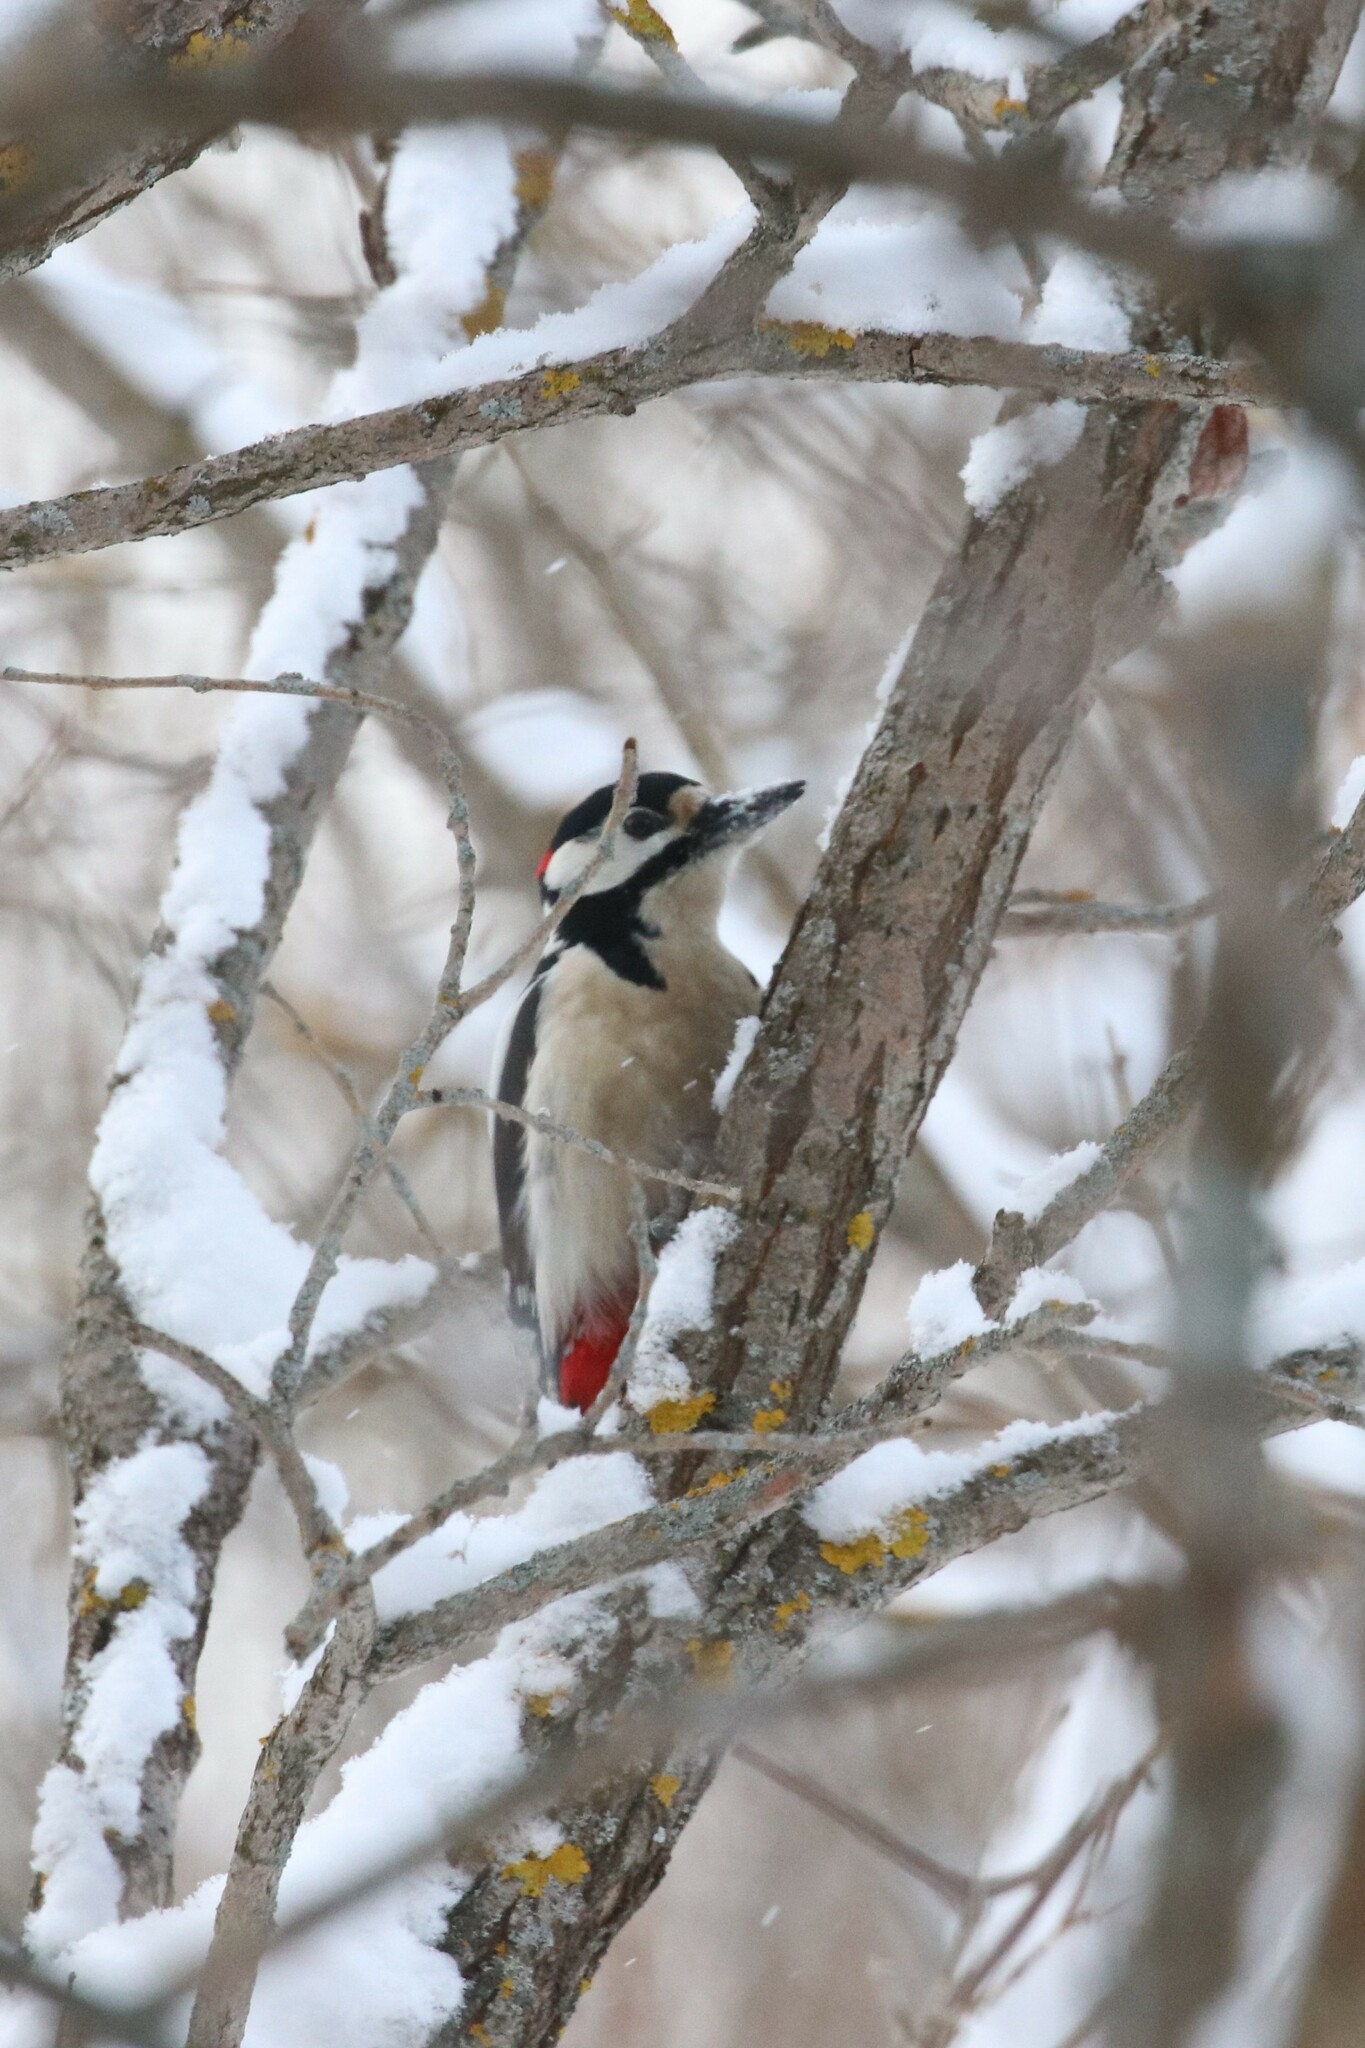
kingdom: Animalia
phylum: Chordata
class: Aves
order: Piciformes
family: Picidae
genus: Dendrocopos
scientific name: Dendrocopos major
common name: Great spotted woodpecker
